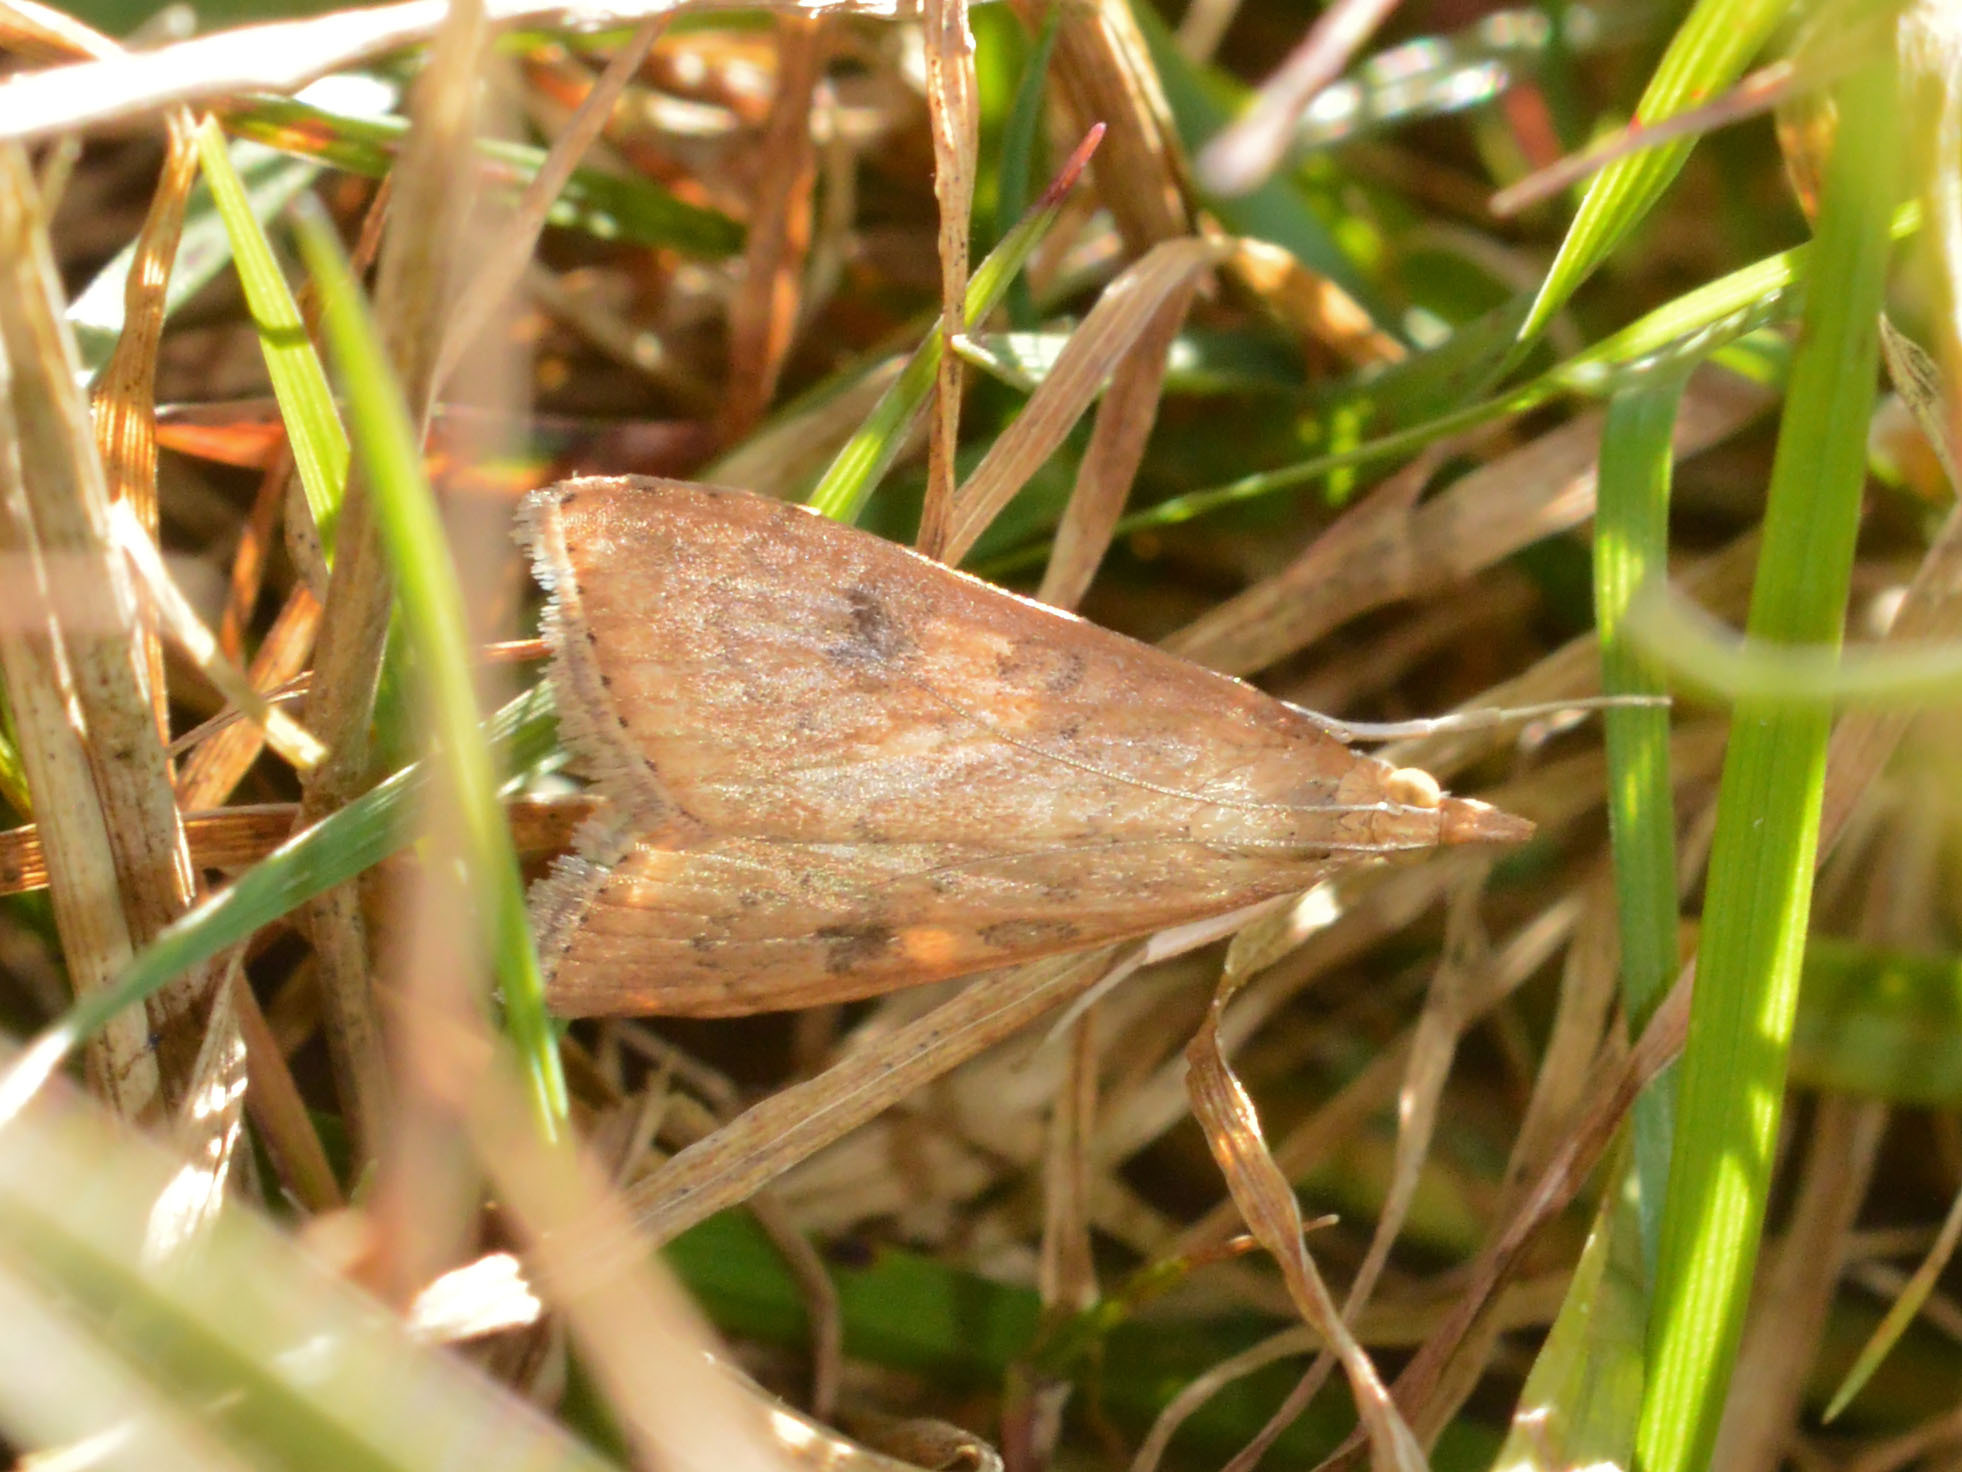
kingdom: Animalia
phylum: Arthropoda
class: Insecta
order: Lepidoptera
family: Crambidae
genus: Udea
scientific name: Udea ferrugalis
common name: Rusty dot
